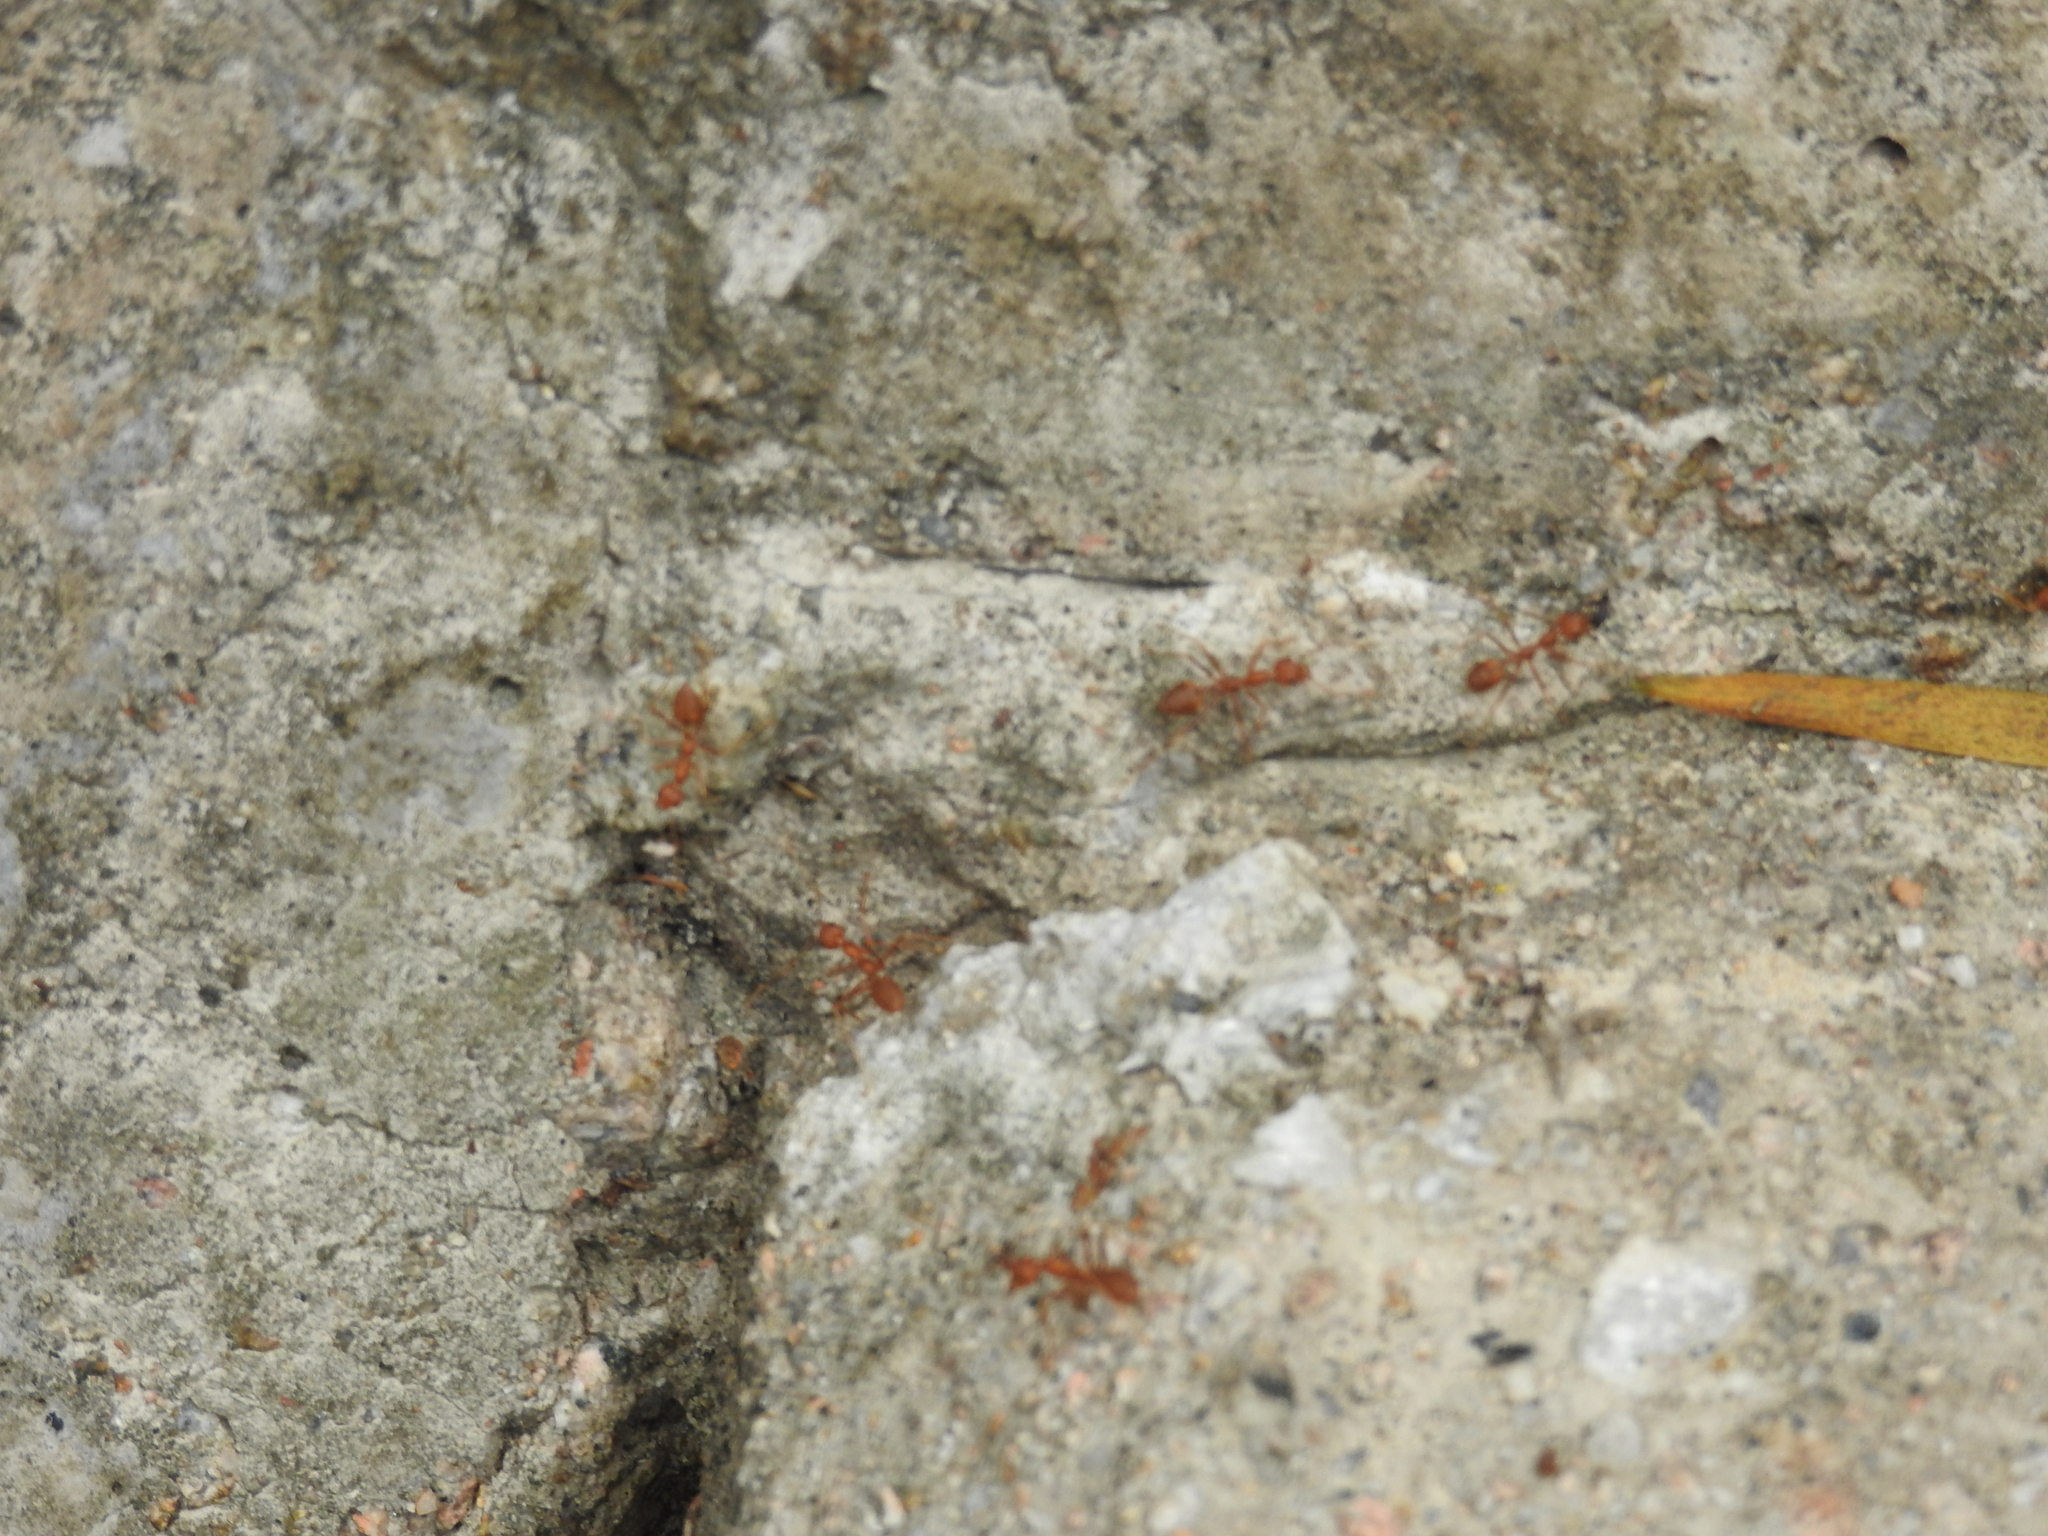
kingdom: Animalia
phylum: Arthropoda
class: Insecta
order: Hymenoptera
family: Formicidae
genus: Oecophylla
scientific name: Oecophylla smaragdina
